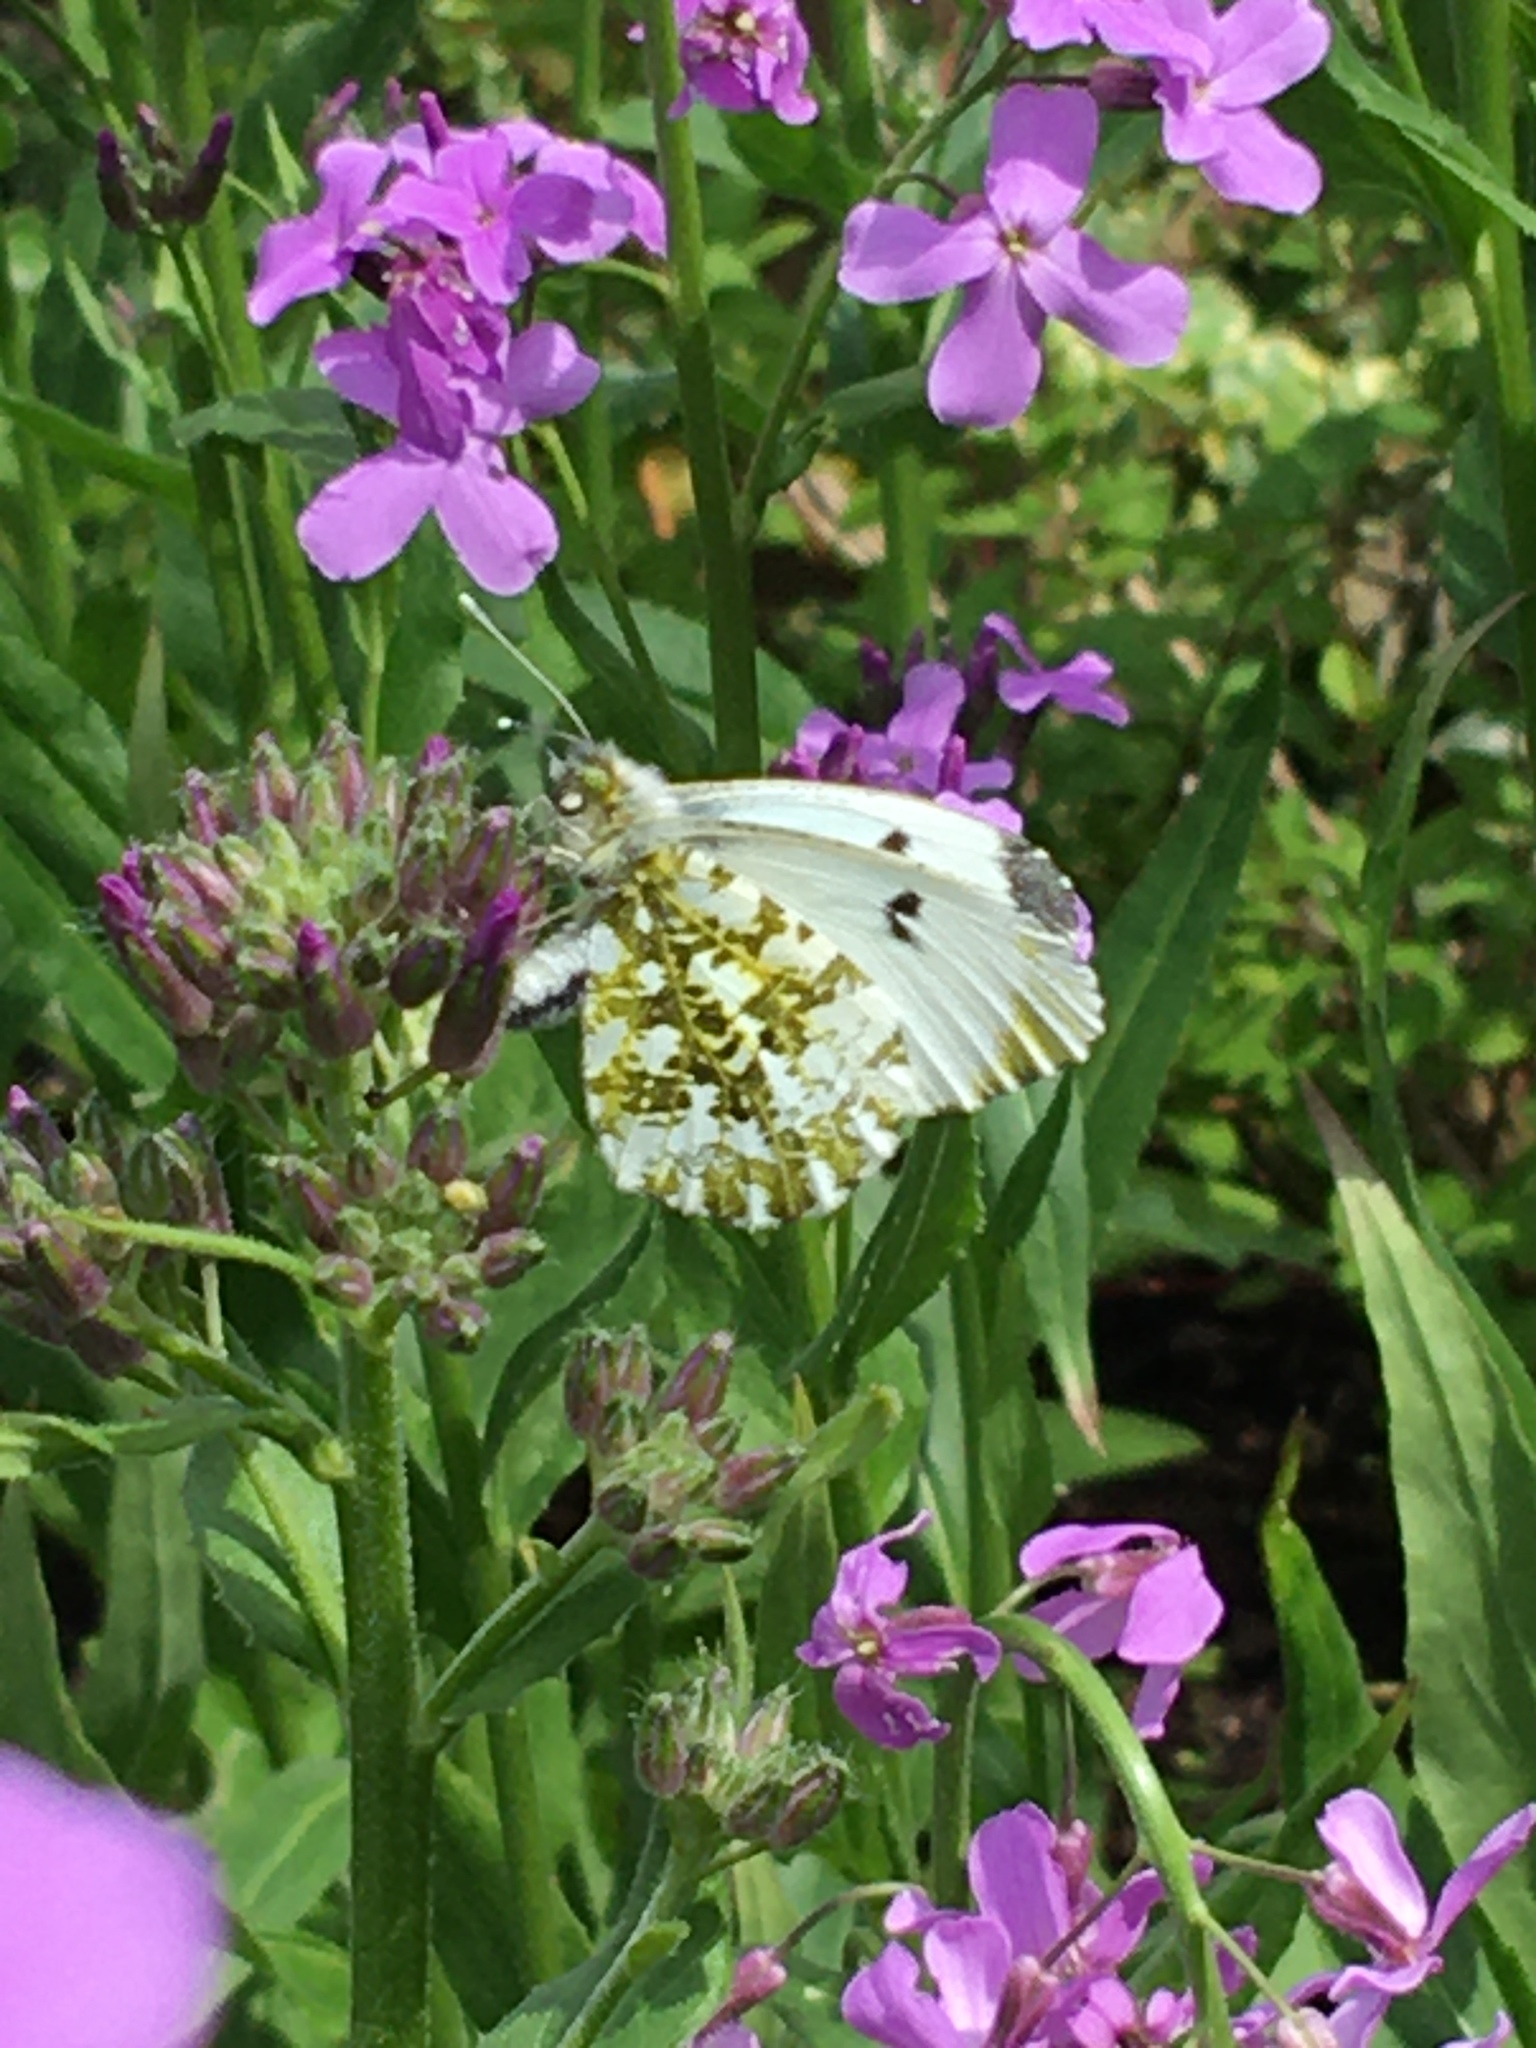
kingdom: Animalia
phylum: Arthropoda
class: Insecta
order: Lepidoptera
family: Pieridae
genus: Anthocharis
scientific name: Anthocharis cardamines
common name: Orange-tip
